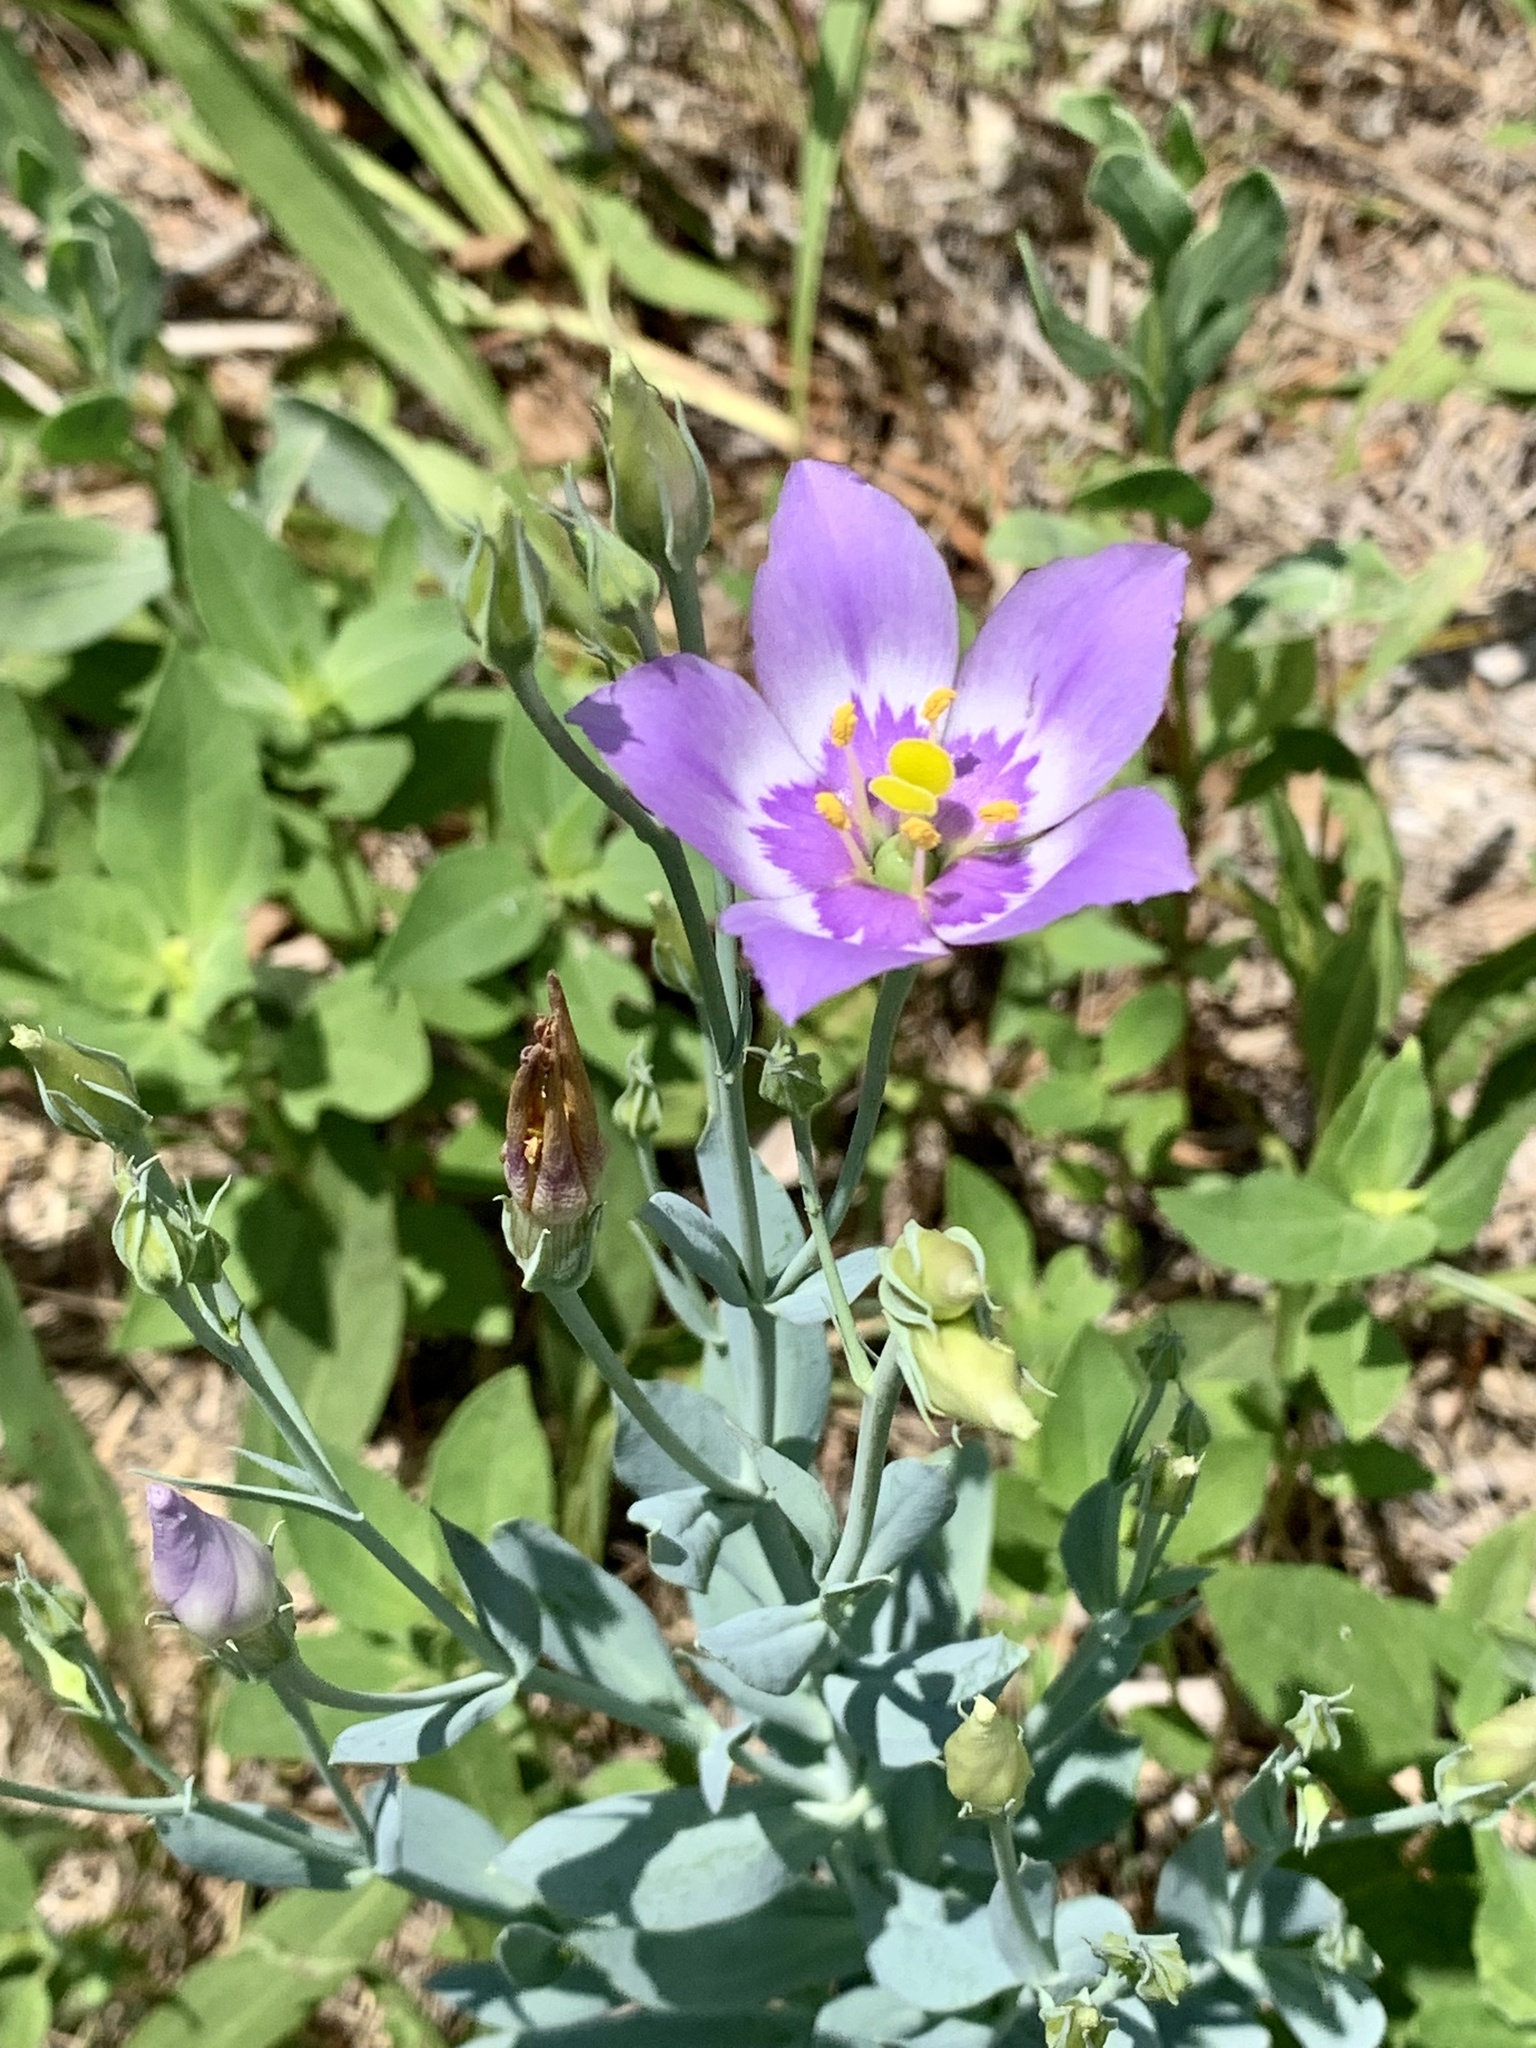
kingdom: Plantae
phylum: Tracheophyta
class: Magnoliopsida
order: Gentianales
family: Gentianaceae
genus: Eustoma
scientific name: Eustoma exaltatum
